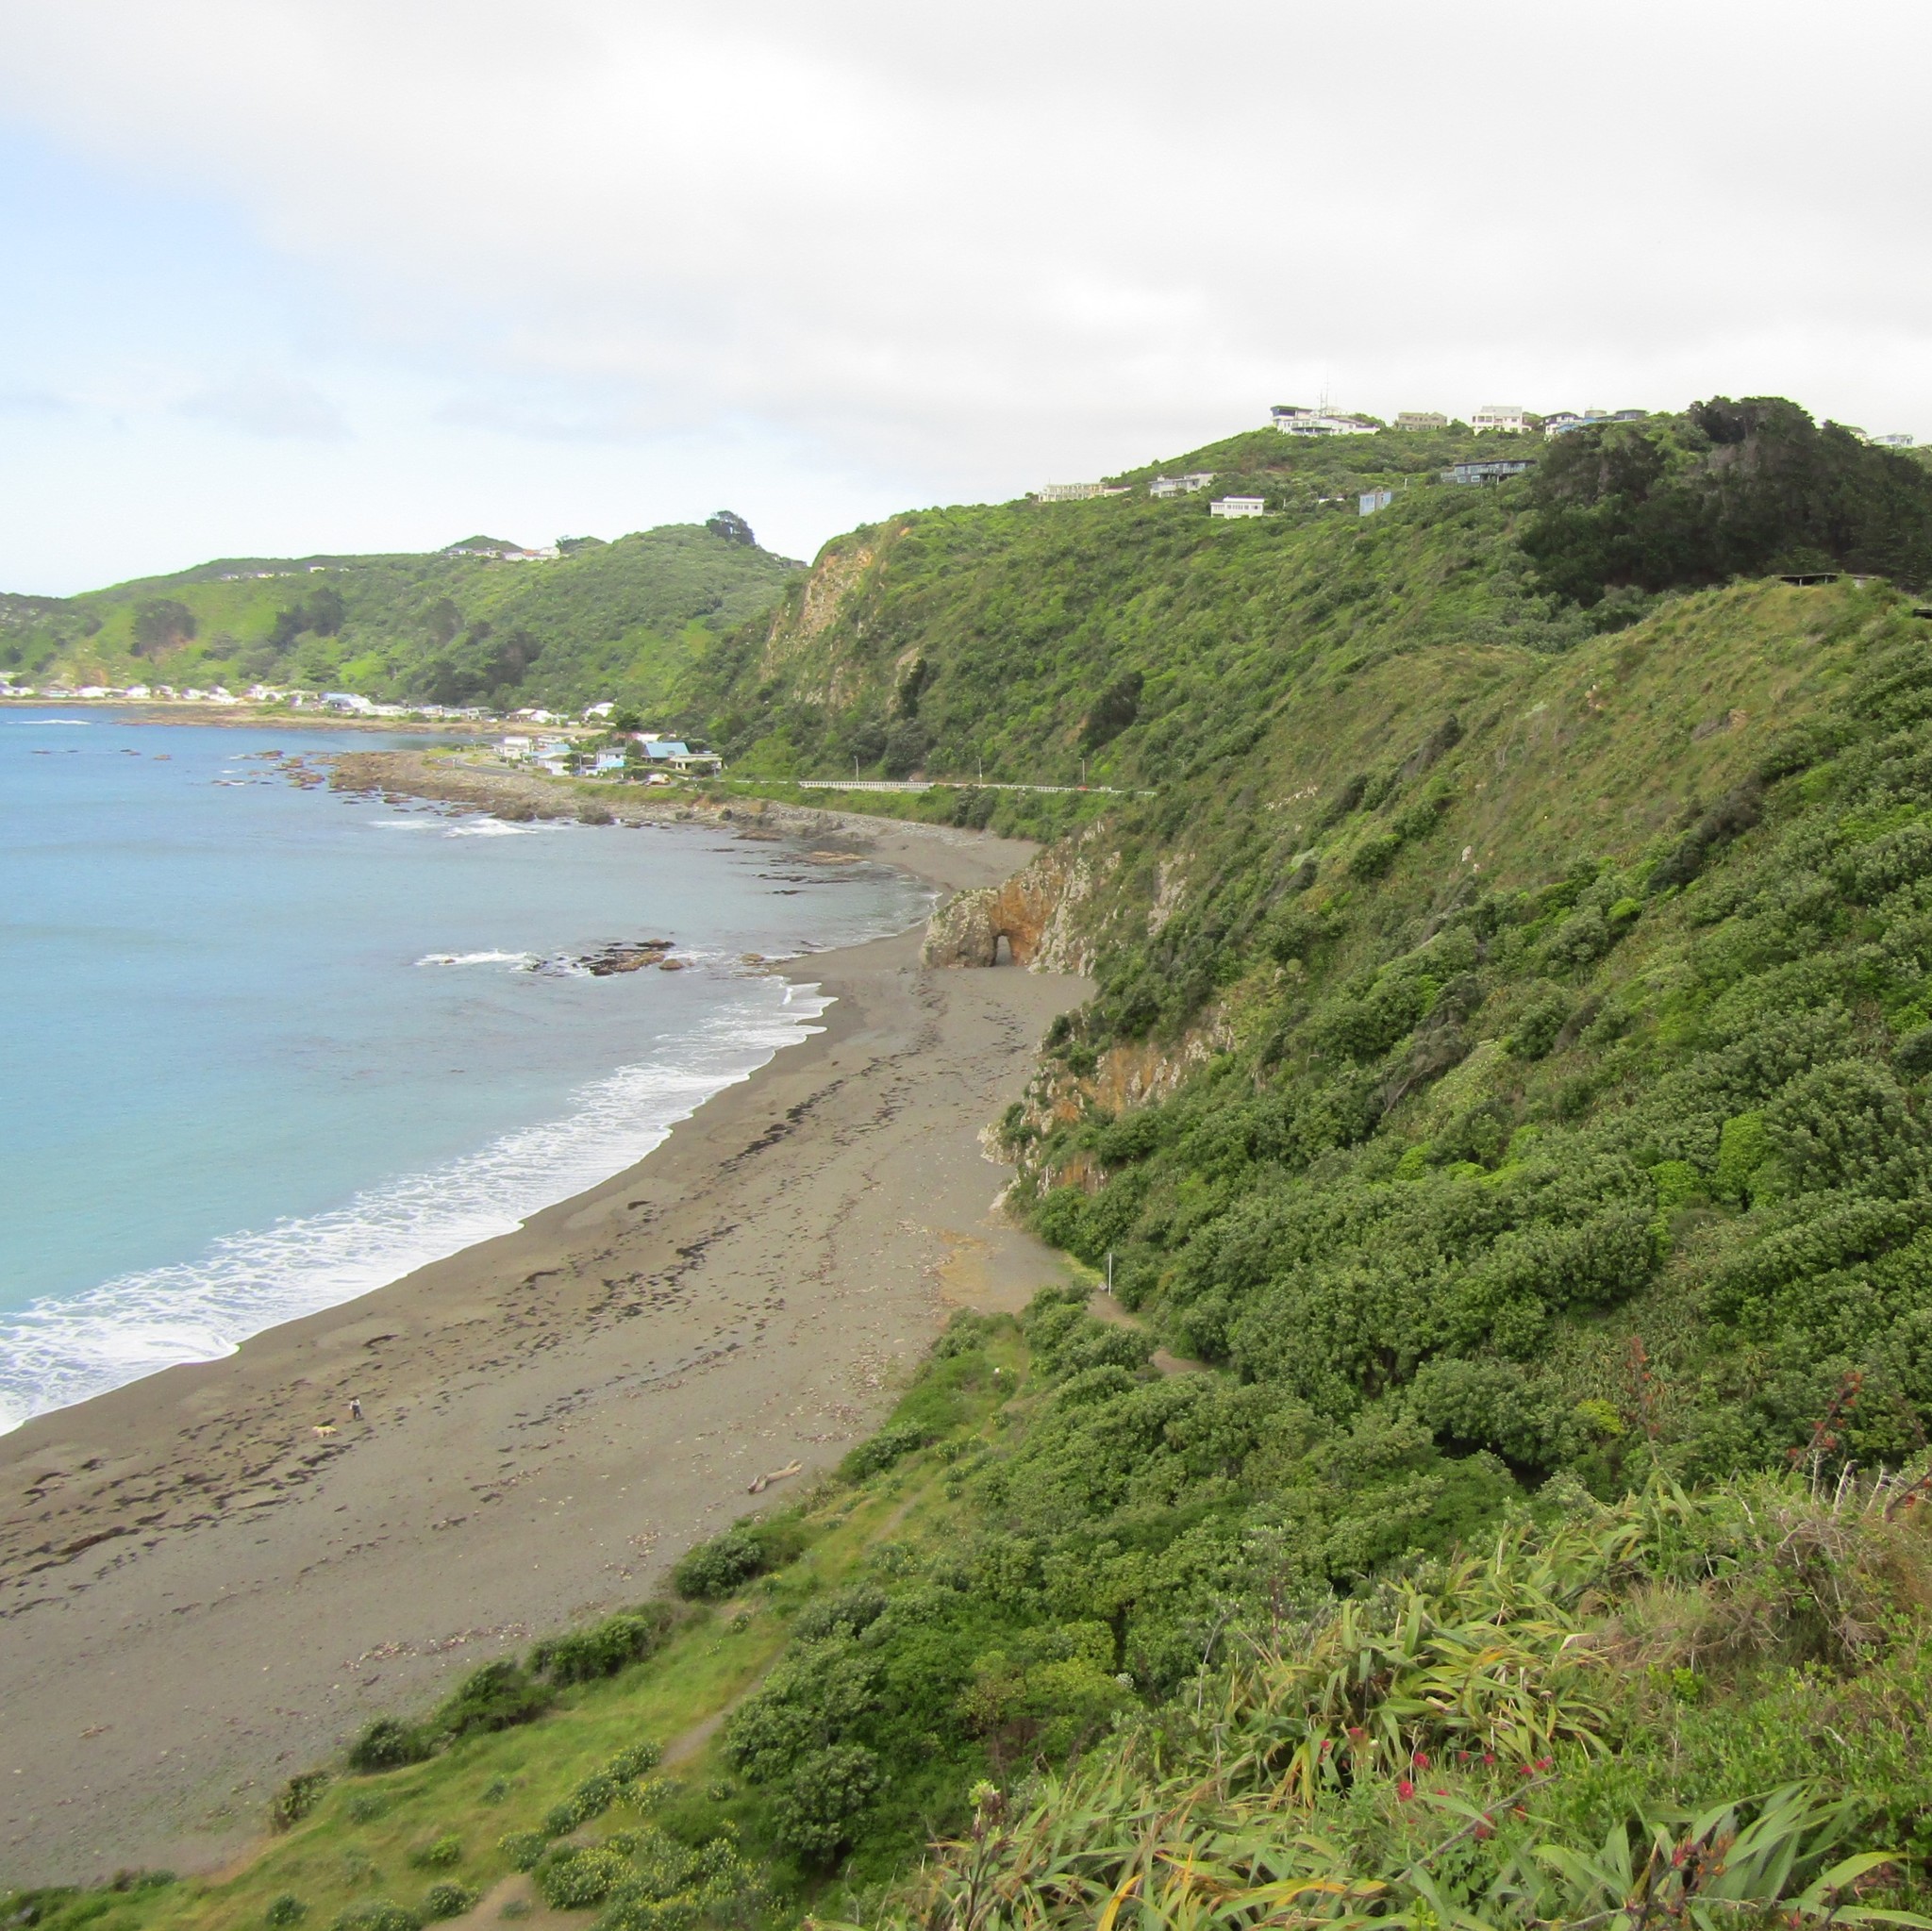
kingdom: Plantae
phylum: Tracheophyta
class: Magnoliopsida
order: Dipsacales
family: Caprifoliaceae
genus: Centranthus
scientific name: Centranthus ruber
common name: Red valerian
